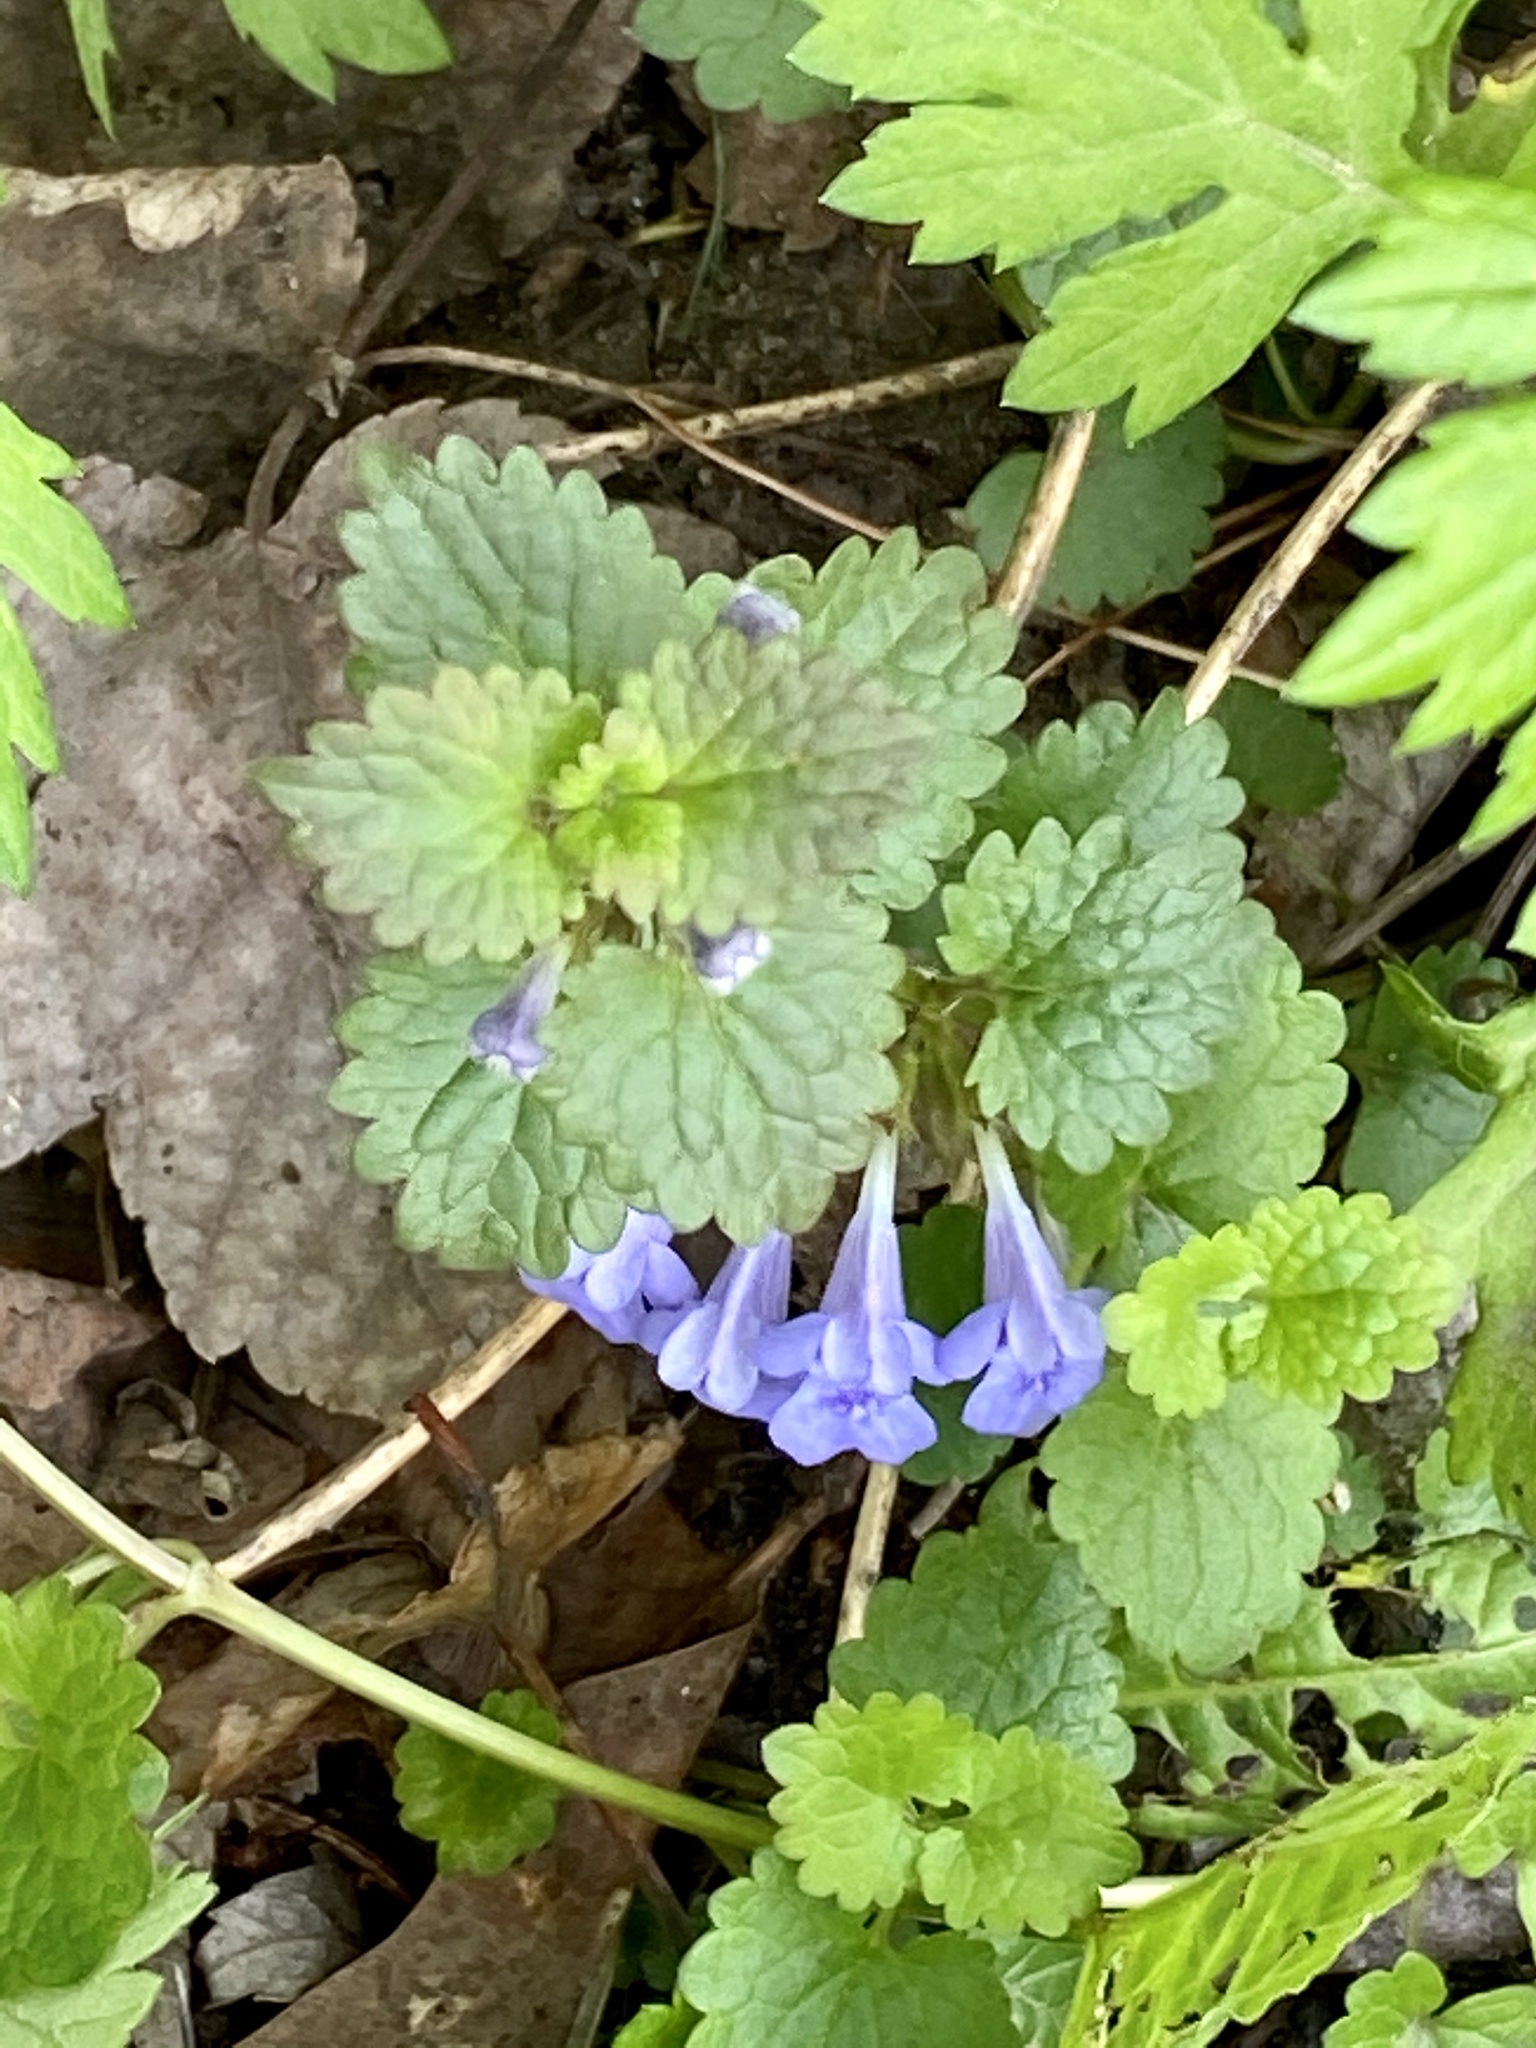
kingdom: Plantae
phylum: Tracheophyta
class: Magnoliopsida
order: Lamiales
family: Lamiaceae
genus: Glechoma
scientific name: Glechoma hederacea
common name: Ground ivy
